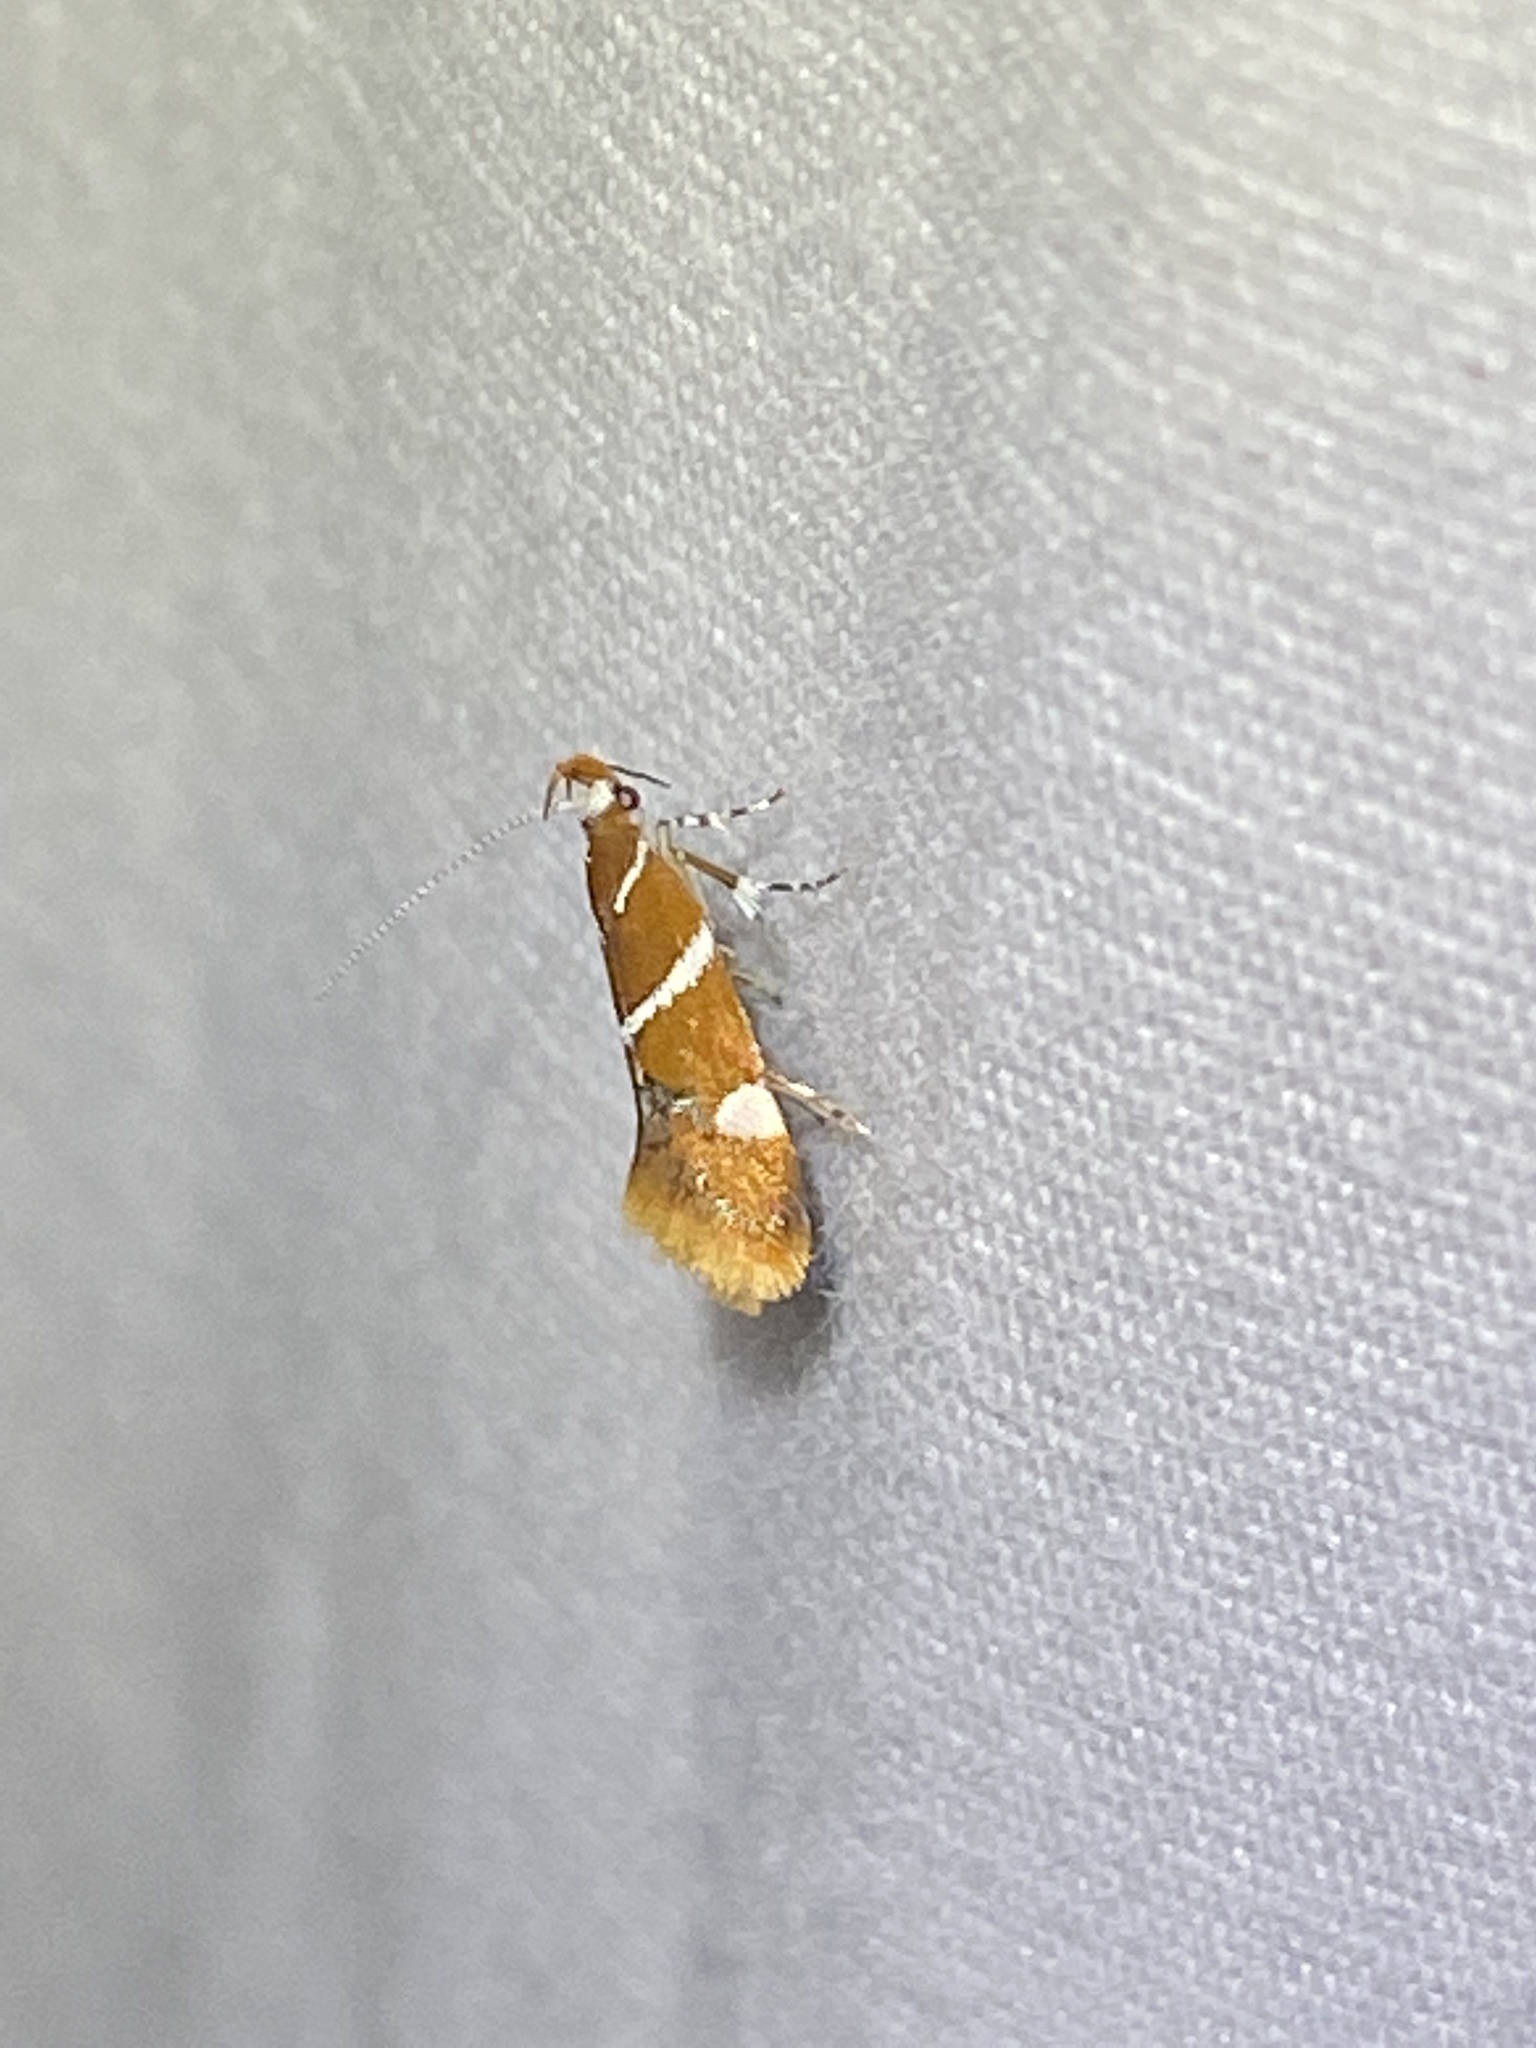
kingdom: Animalia
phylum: Arthropoda
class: Insecta
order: Lepidoptera
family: Oecophoridae
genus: Promalactis
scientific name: Promalactis suzukiella
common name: Moth
